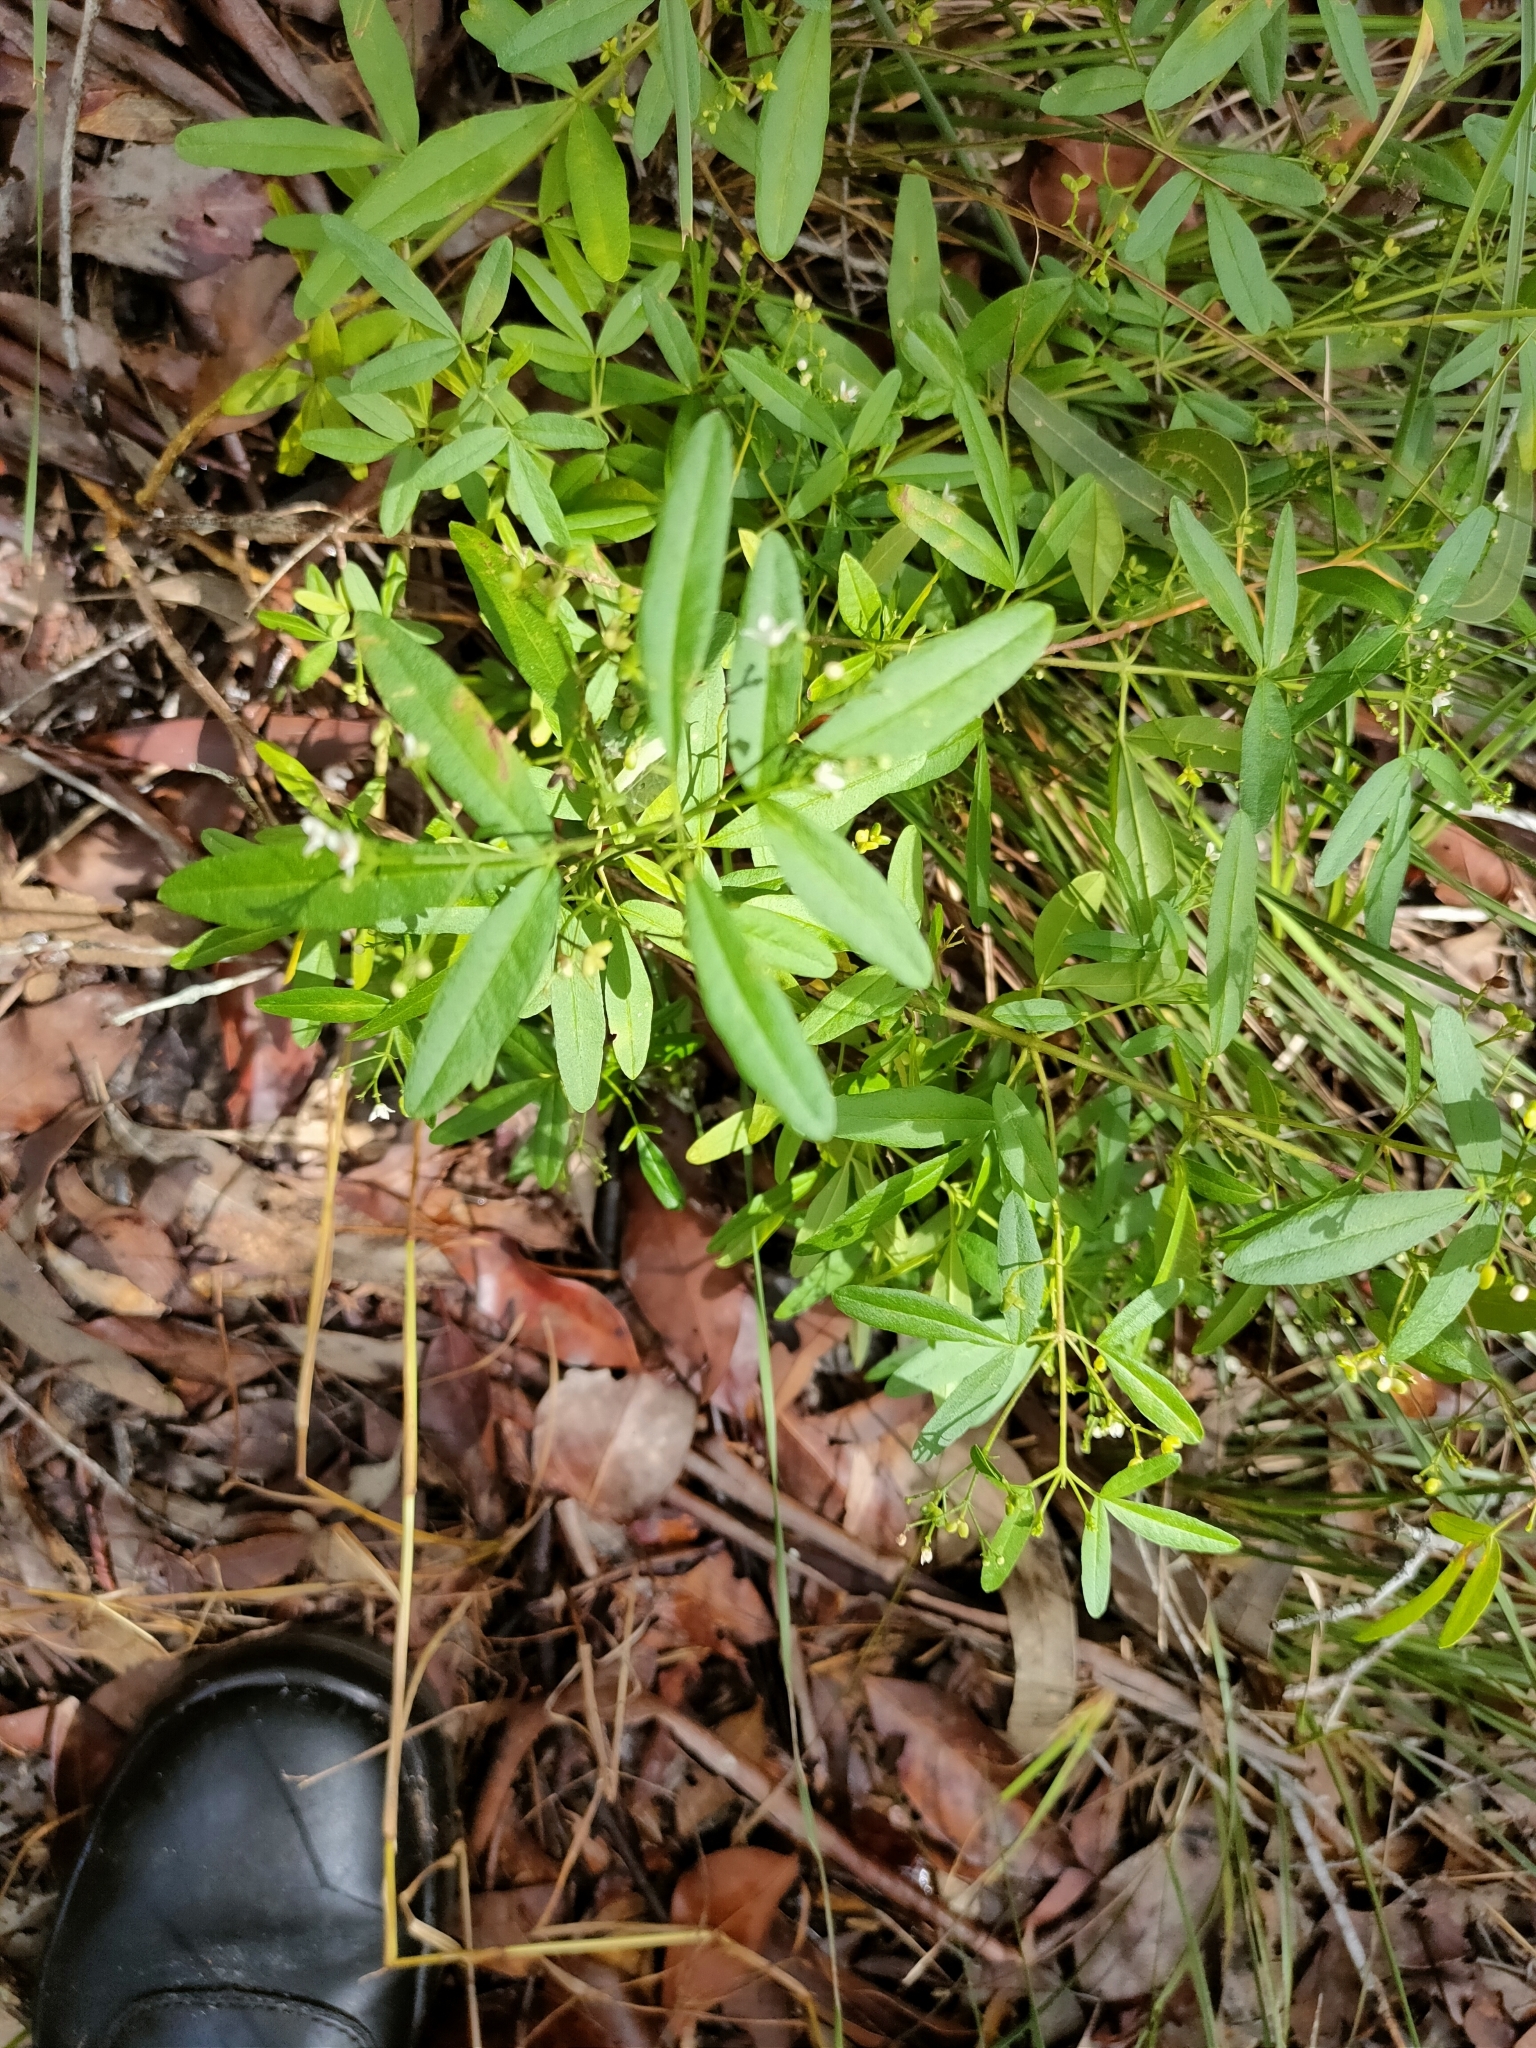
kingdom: Plantae
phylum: Tracheophyta
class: Magnoliopsida
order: Sapindales
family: Rutaceae
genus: Zieria
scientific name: Zieria smithii
